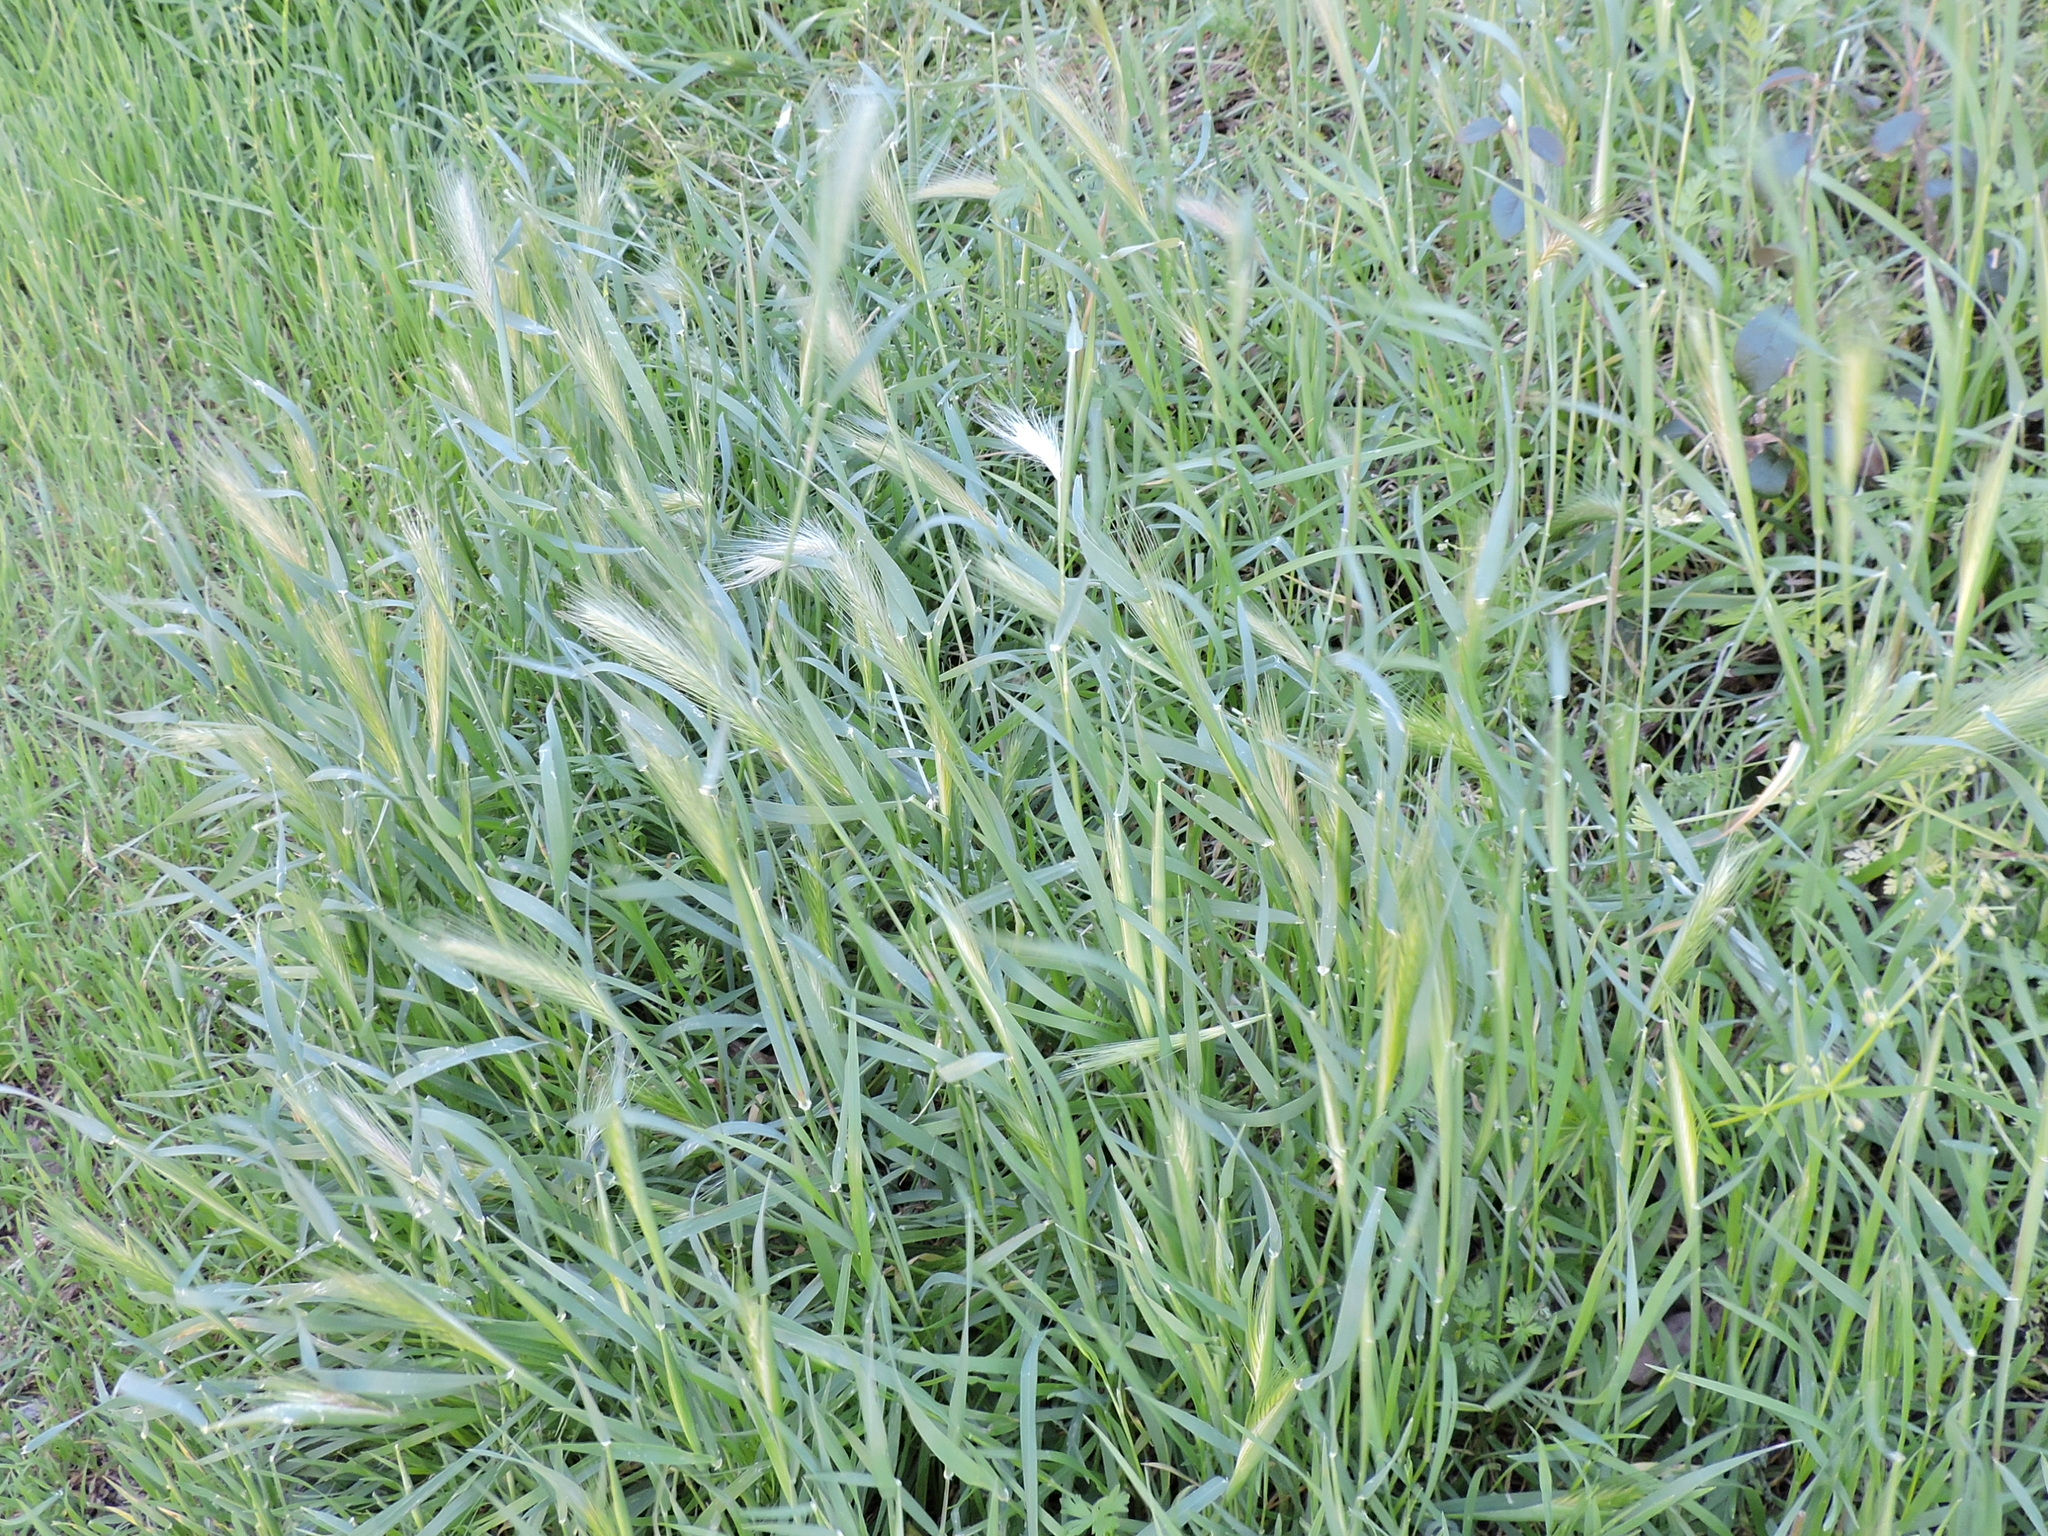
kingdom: Plantae
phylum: Tracheophyta
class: Liliopsida
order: Poales
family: Poaceae
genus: Hordeum
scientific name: Hordeum murinum
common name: Wall barley
